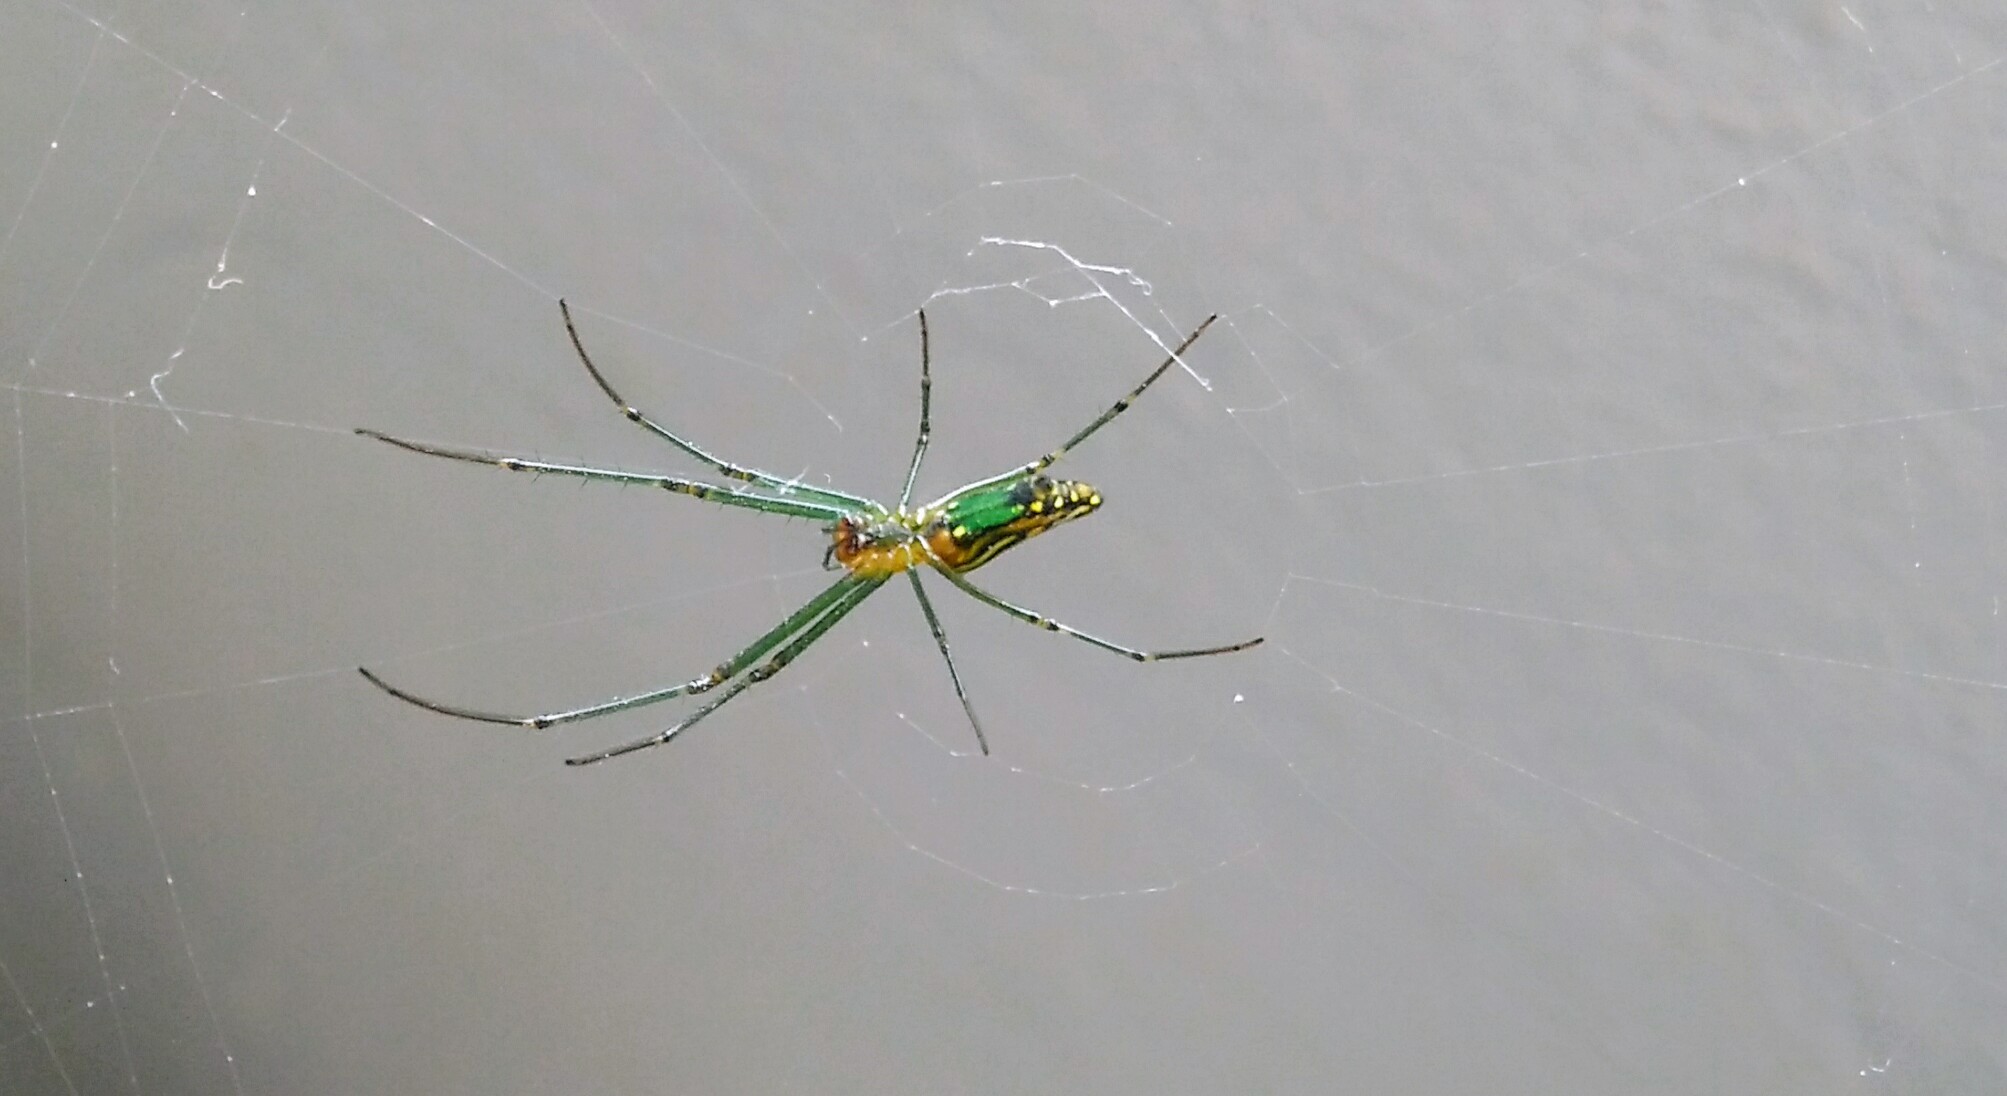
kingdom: Animalia
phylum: Arthropoda
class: Arachnida
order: Araneae
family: Tetragnathidae
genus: Leucauge
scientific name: Leucauge decorata
